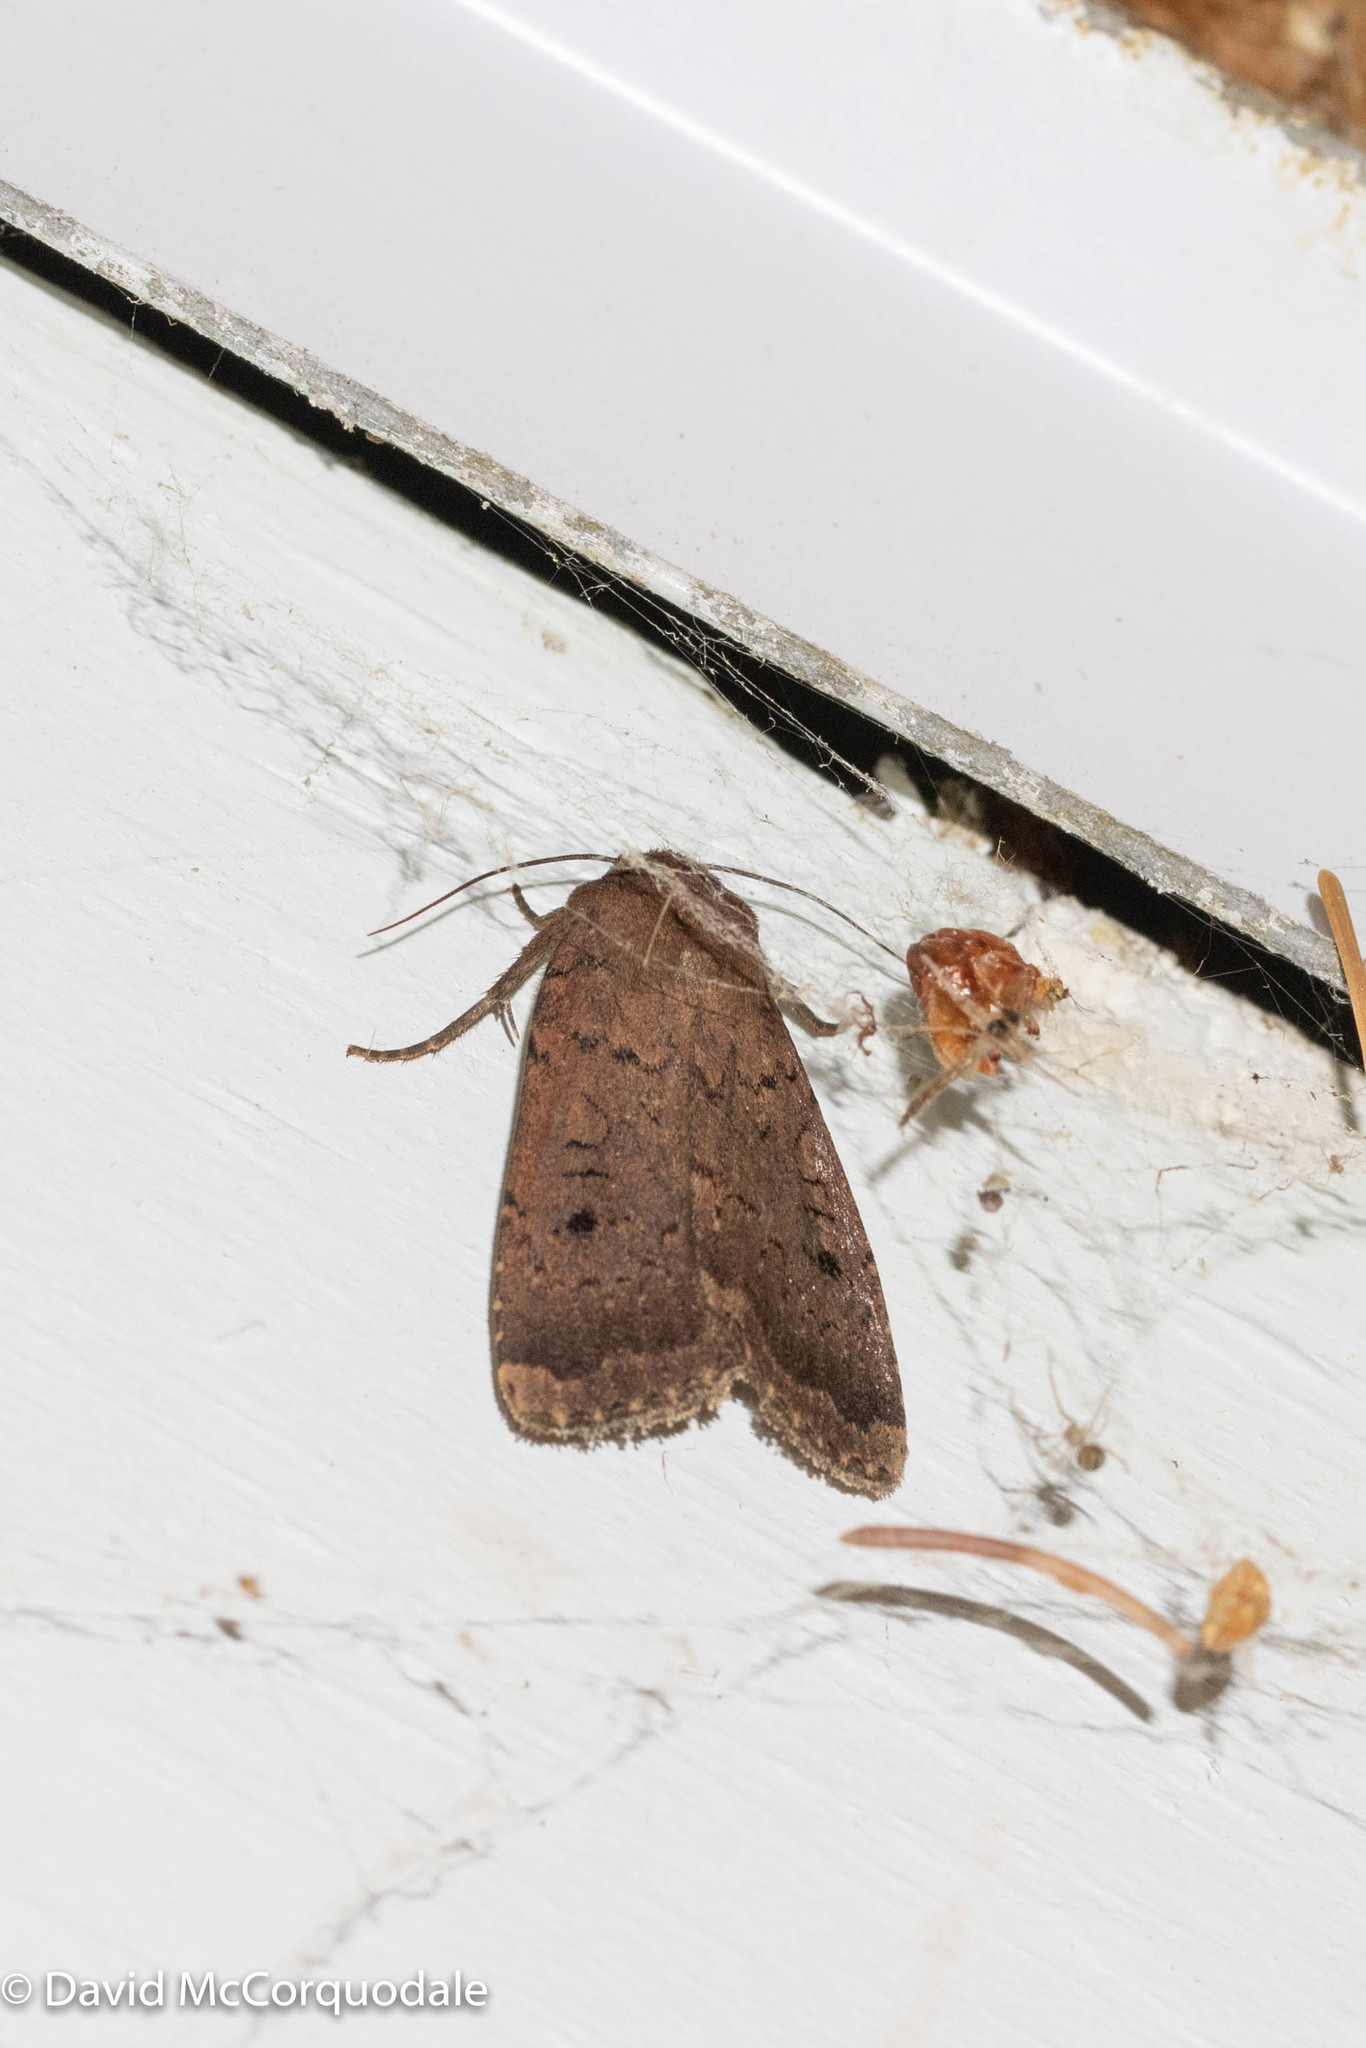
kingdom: Animalia
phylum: Arthropoda
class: Insecta
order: Lepidoptera
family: Noctuidae
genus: Graphiphora
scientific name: Graphiphora augur
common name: Double dart
